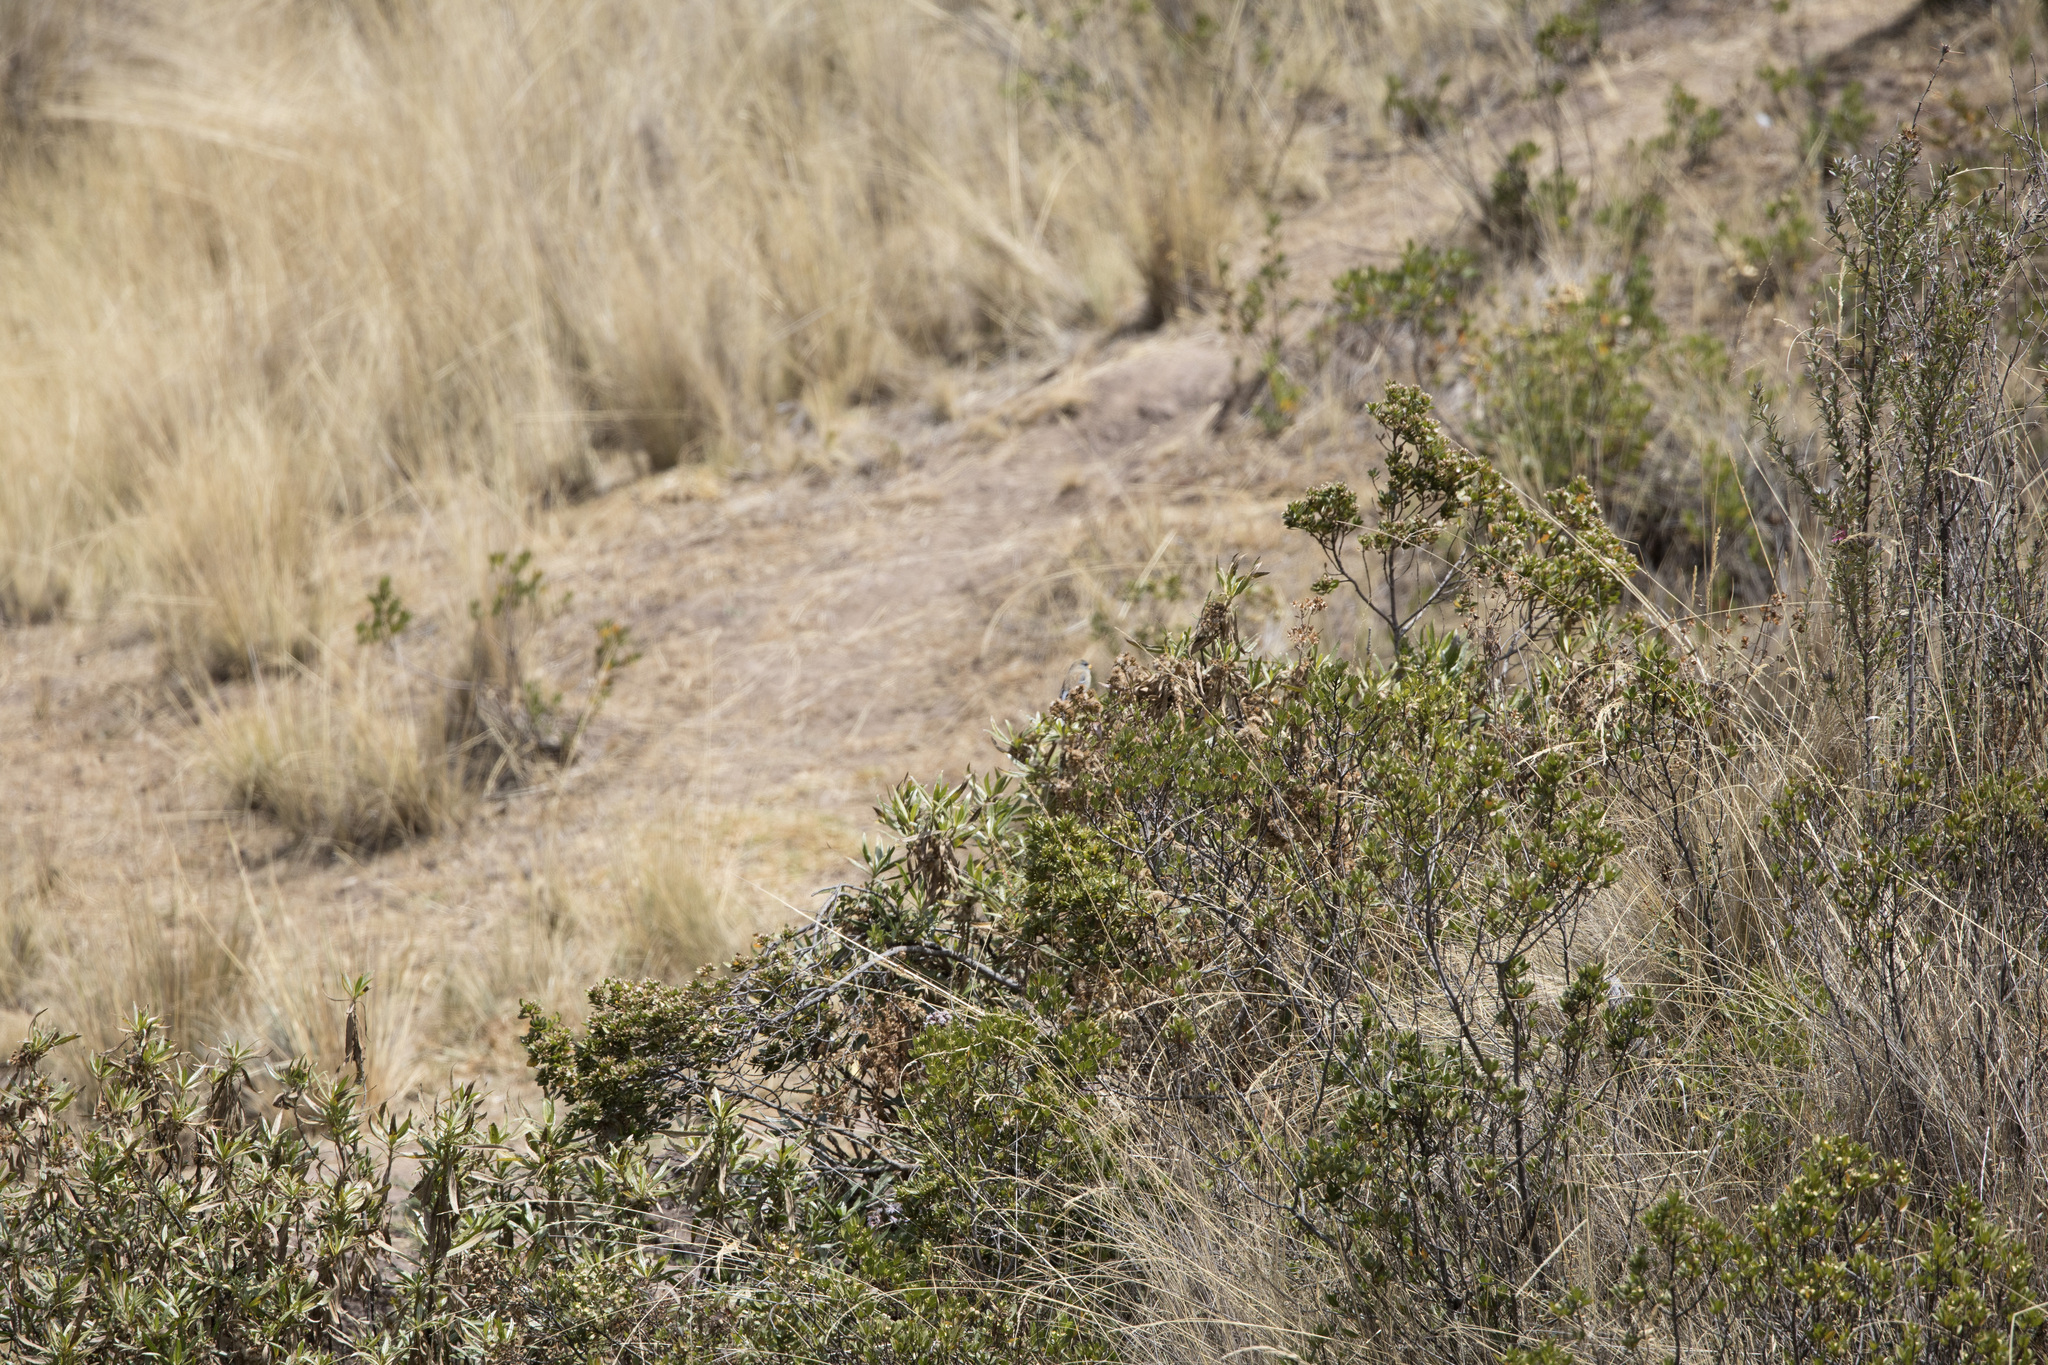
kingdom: Animalia
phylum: Chordata
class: Aves
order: Passeriformes
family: Thraupidae
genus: Catamenia
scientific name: Catamenia analis
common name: Band-tailed seedeater
